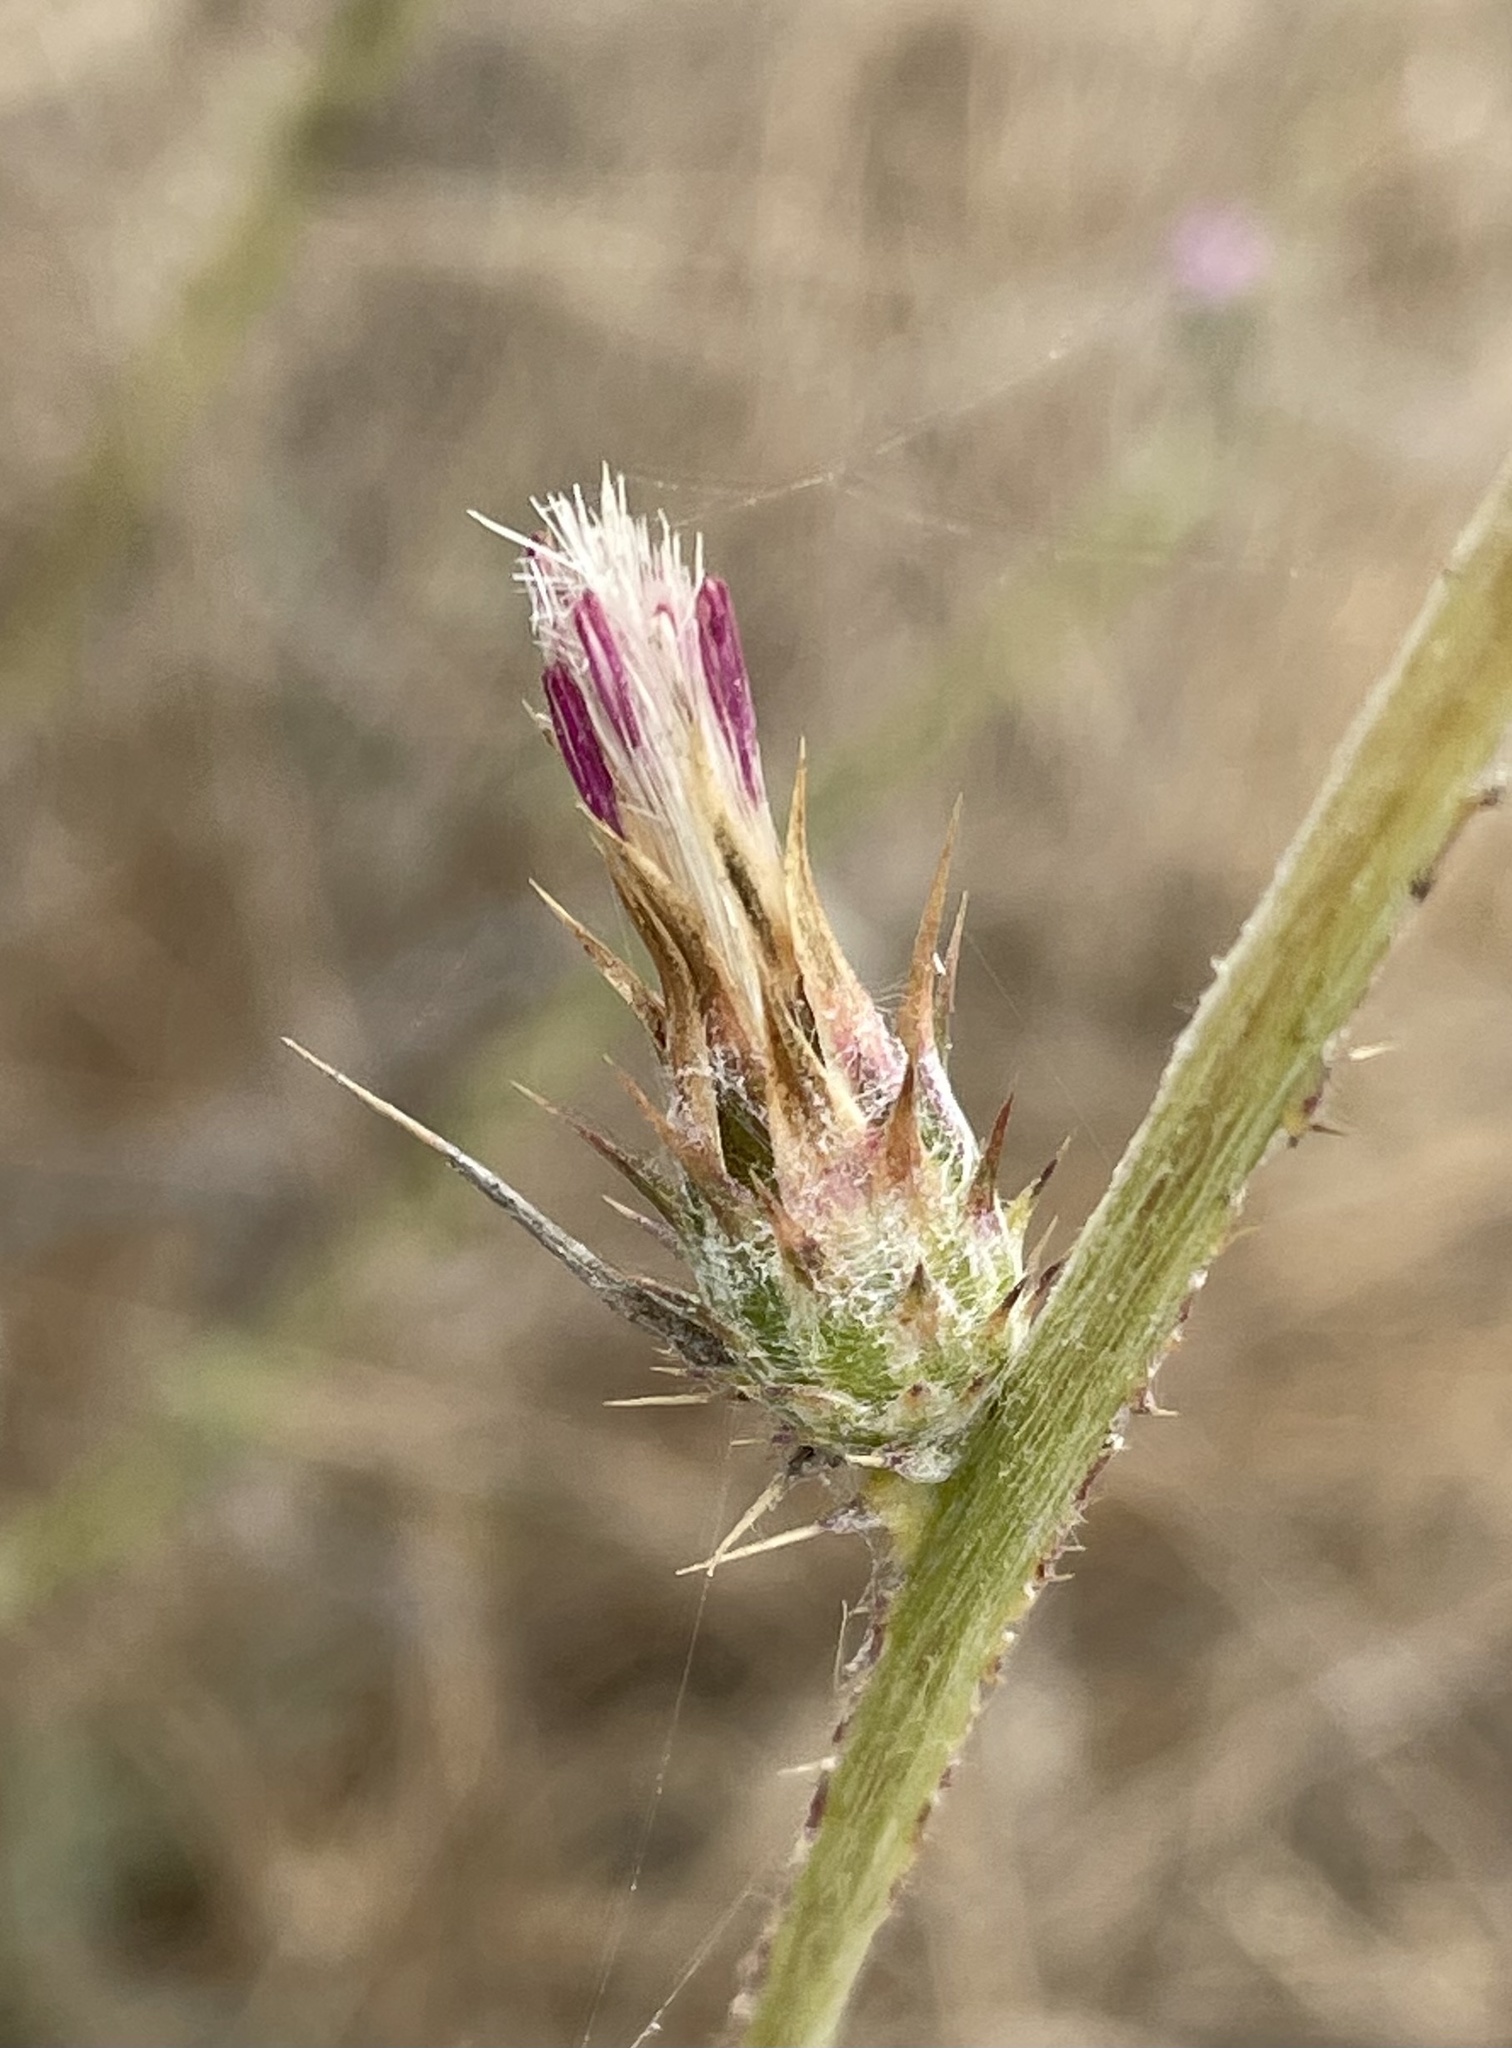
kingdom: Plantae
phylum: Tracheophyta
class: Magnoliopsida
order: Asterales
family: Asteraceae
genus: Carduus
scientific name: Carduus pycnocephalus
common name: Plymouth thistle
